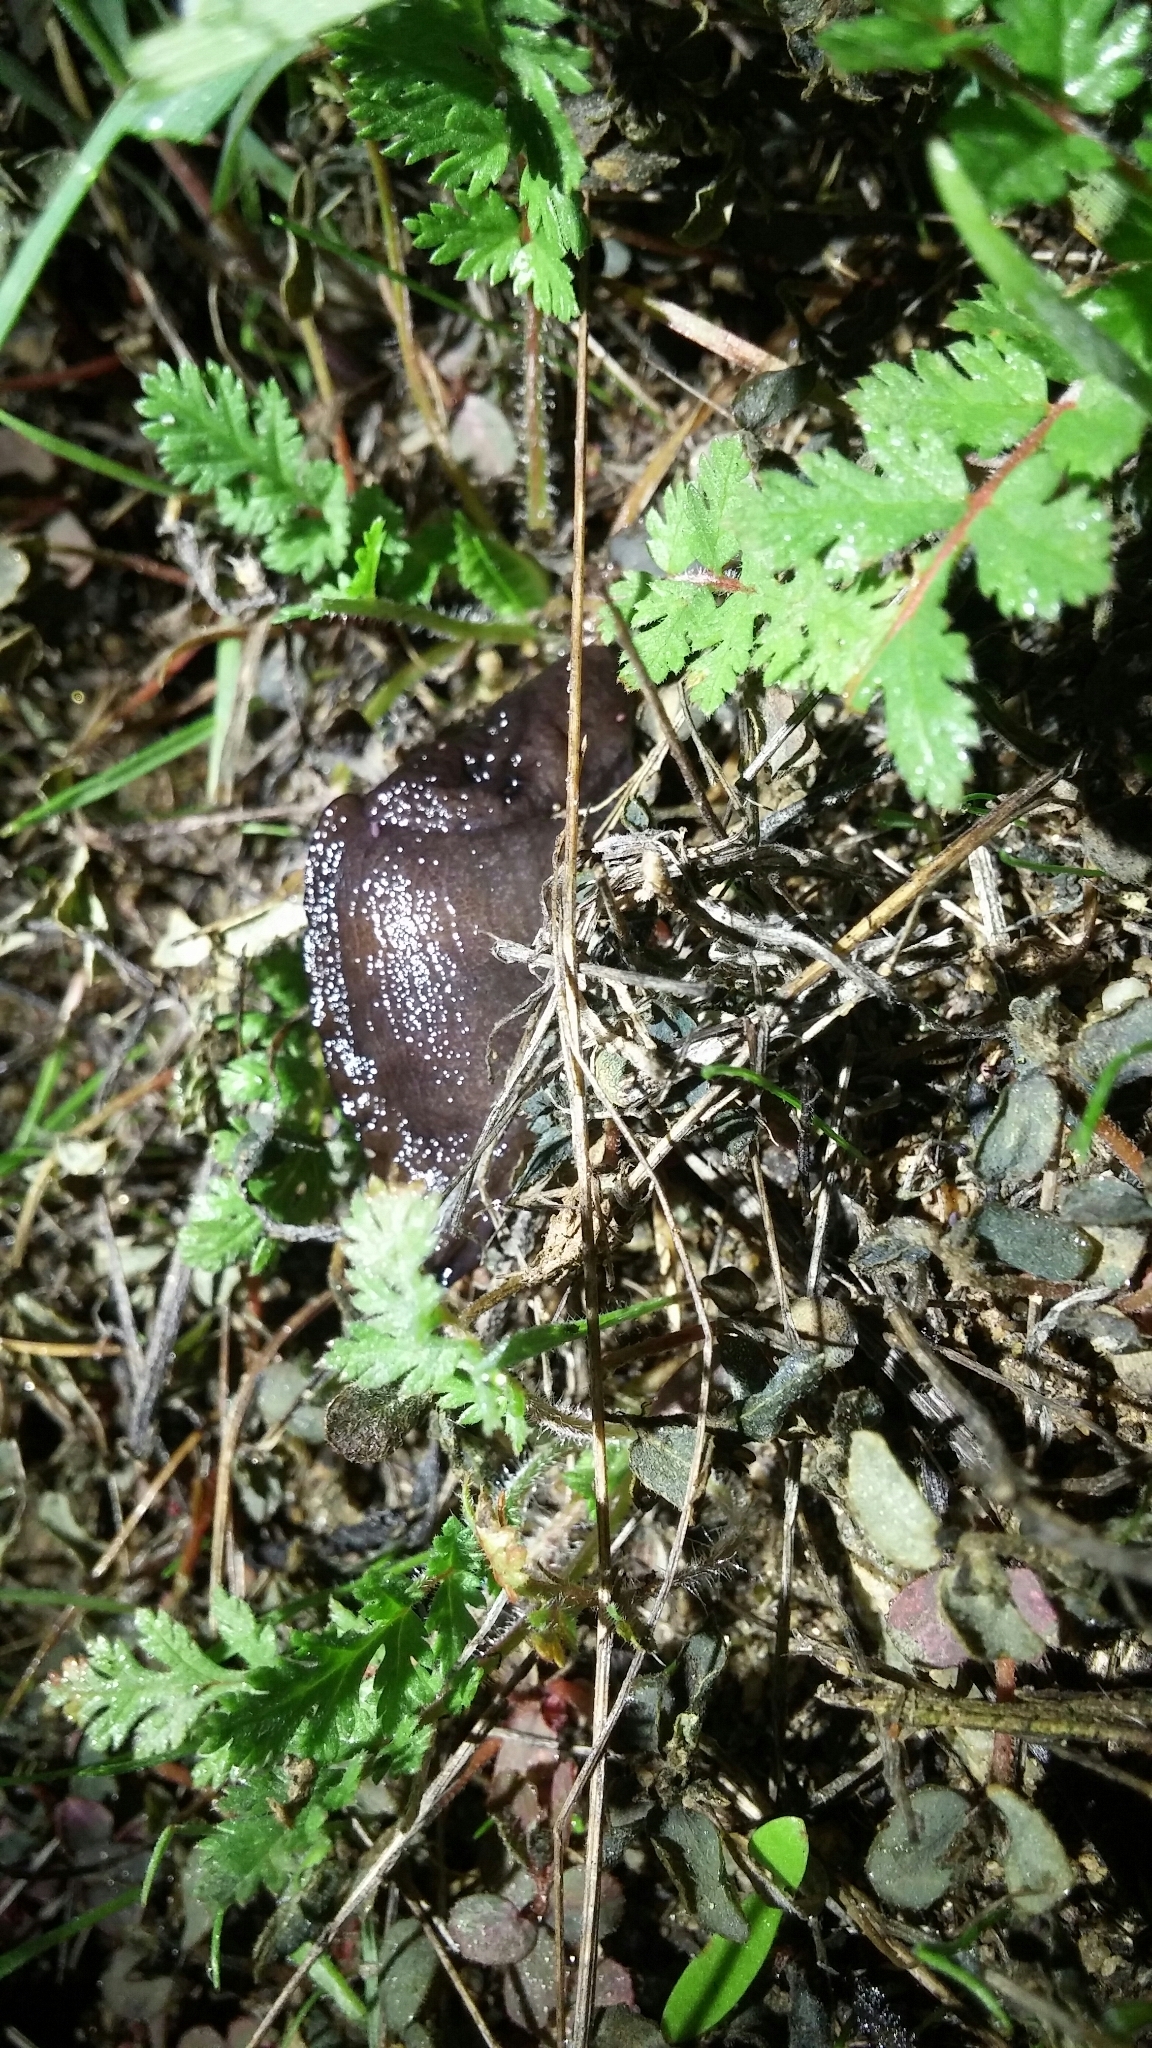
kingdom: Animalia
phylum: Mollusca
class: Gastropoda
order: Stylommatophora
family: Milacidae
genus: Milax
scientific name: Milax gagates
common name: Greenhouse slug
